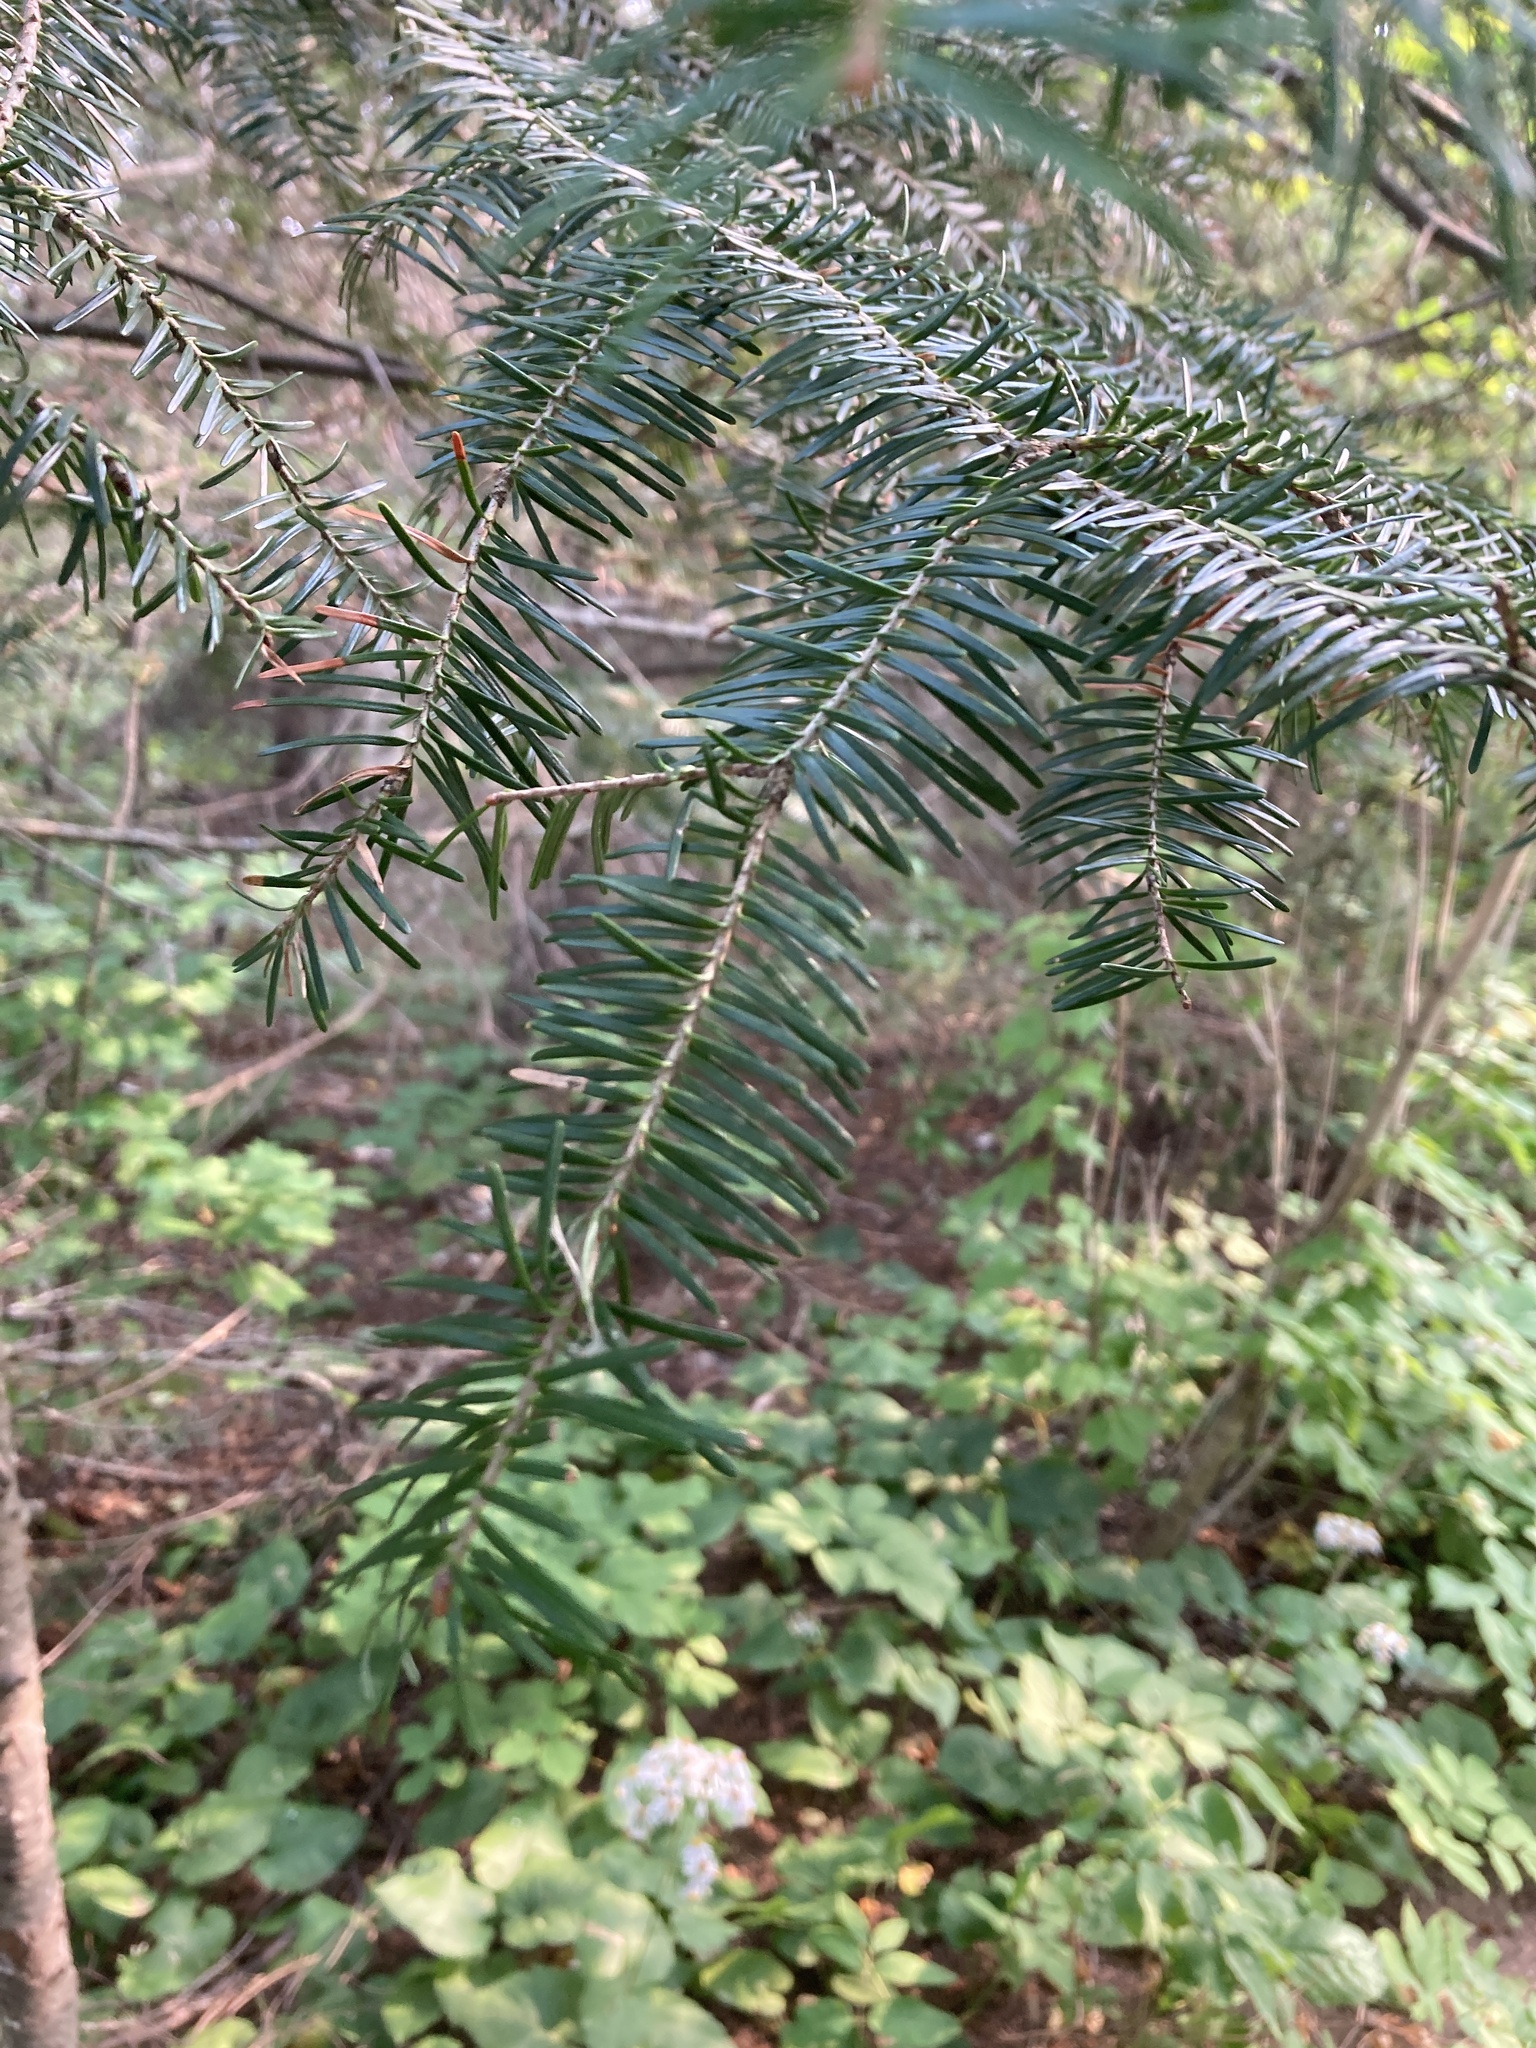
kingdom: Plantae
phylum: Tracheophyta
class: Pinopsida
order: Pinales
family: Pinaceae
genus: Abies
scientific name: Abies balsamea
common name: Balsam fir
